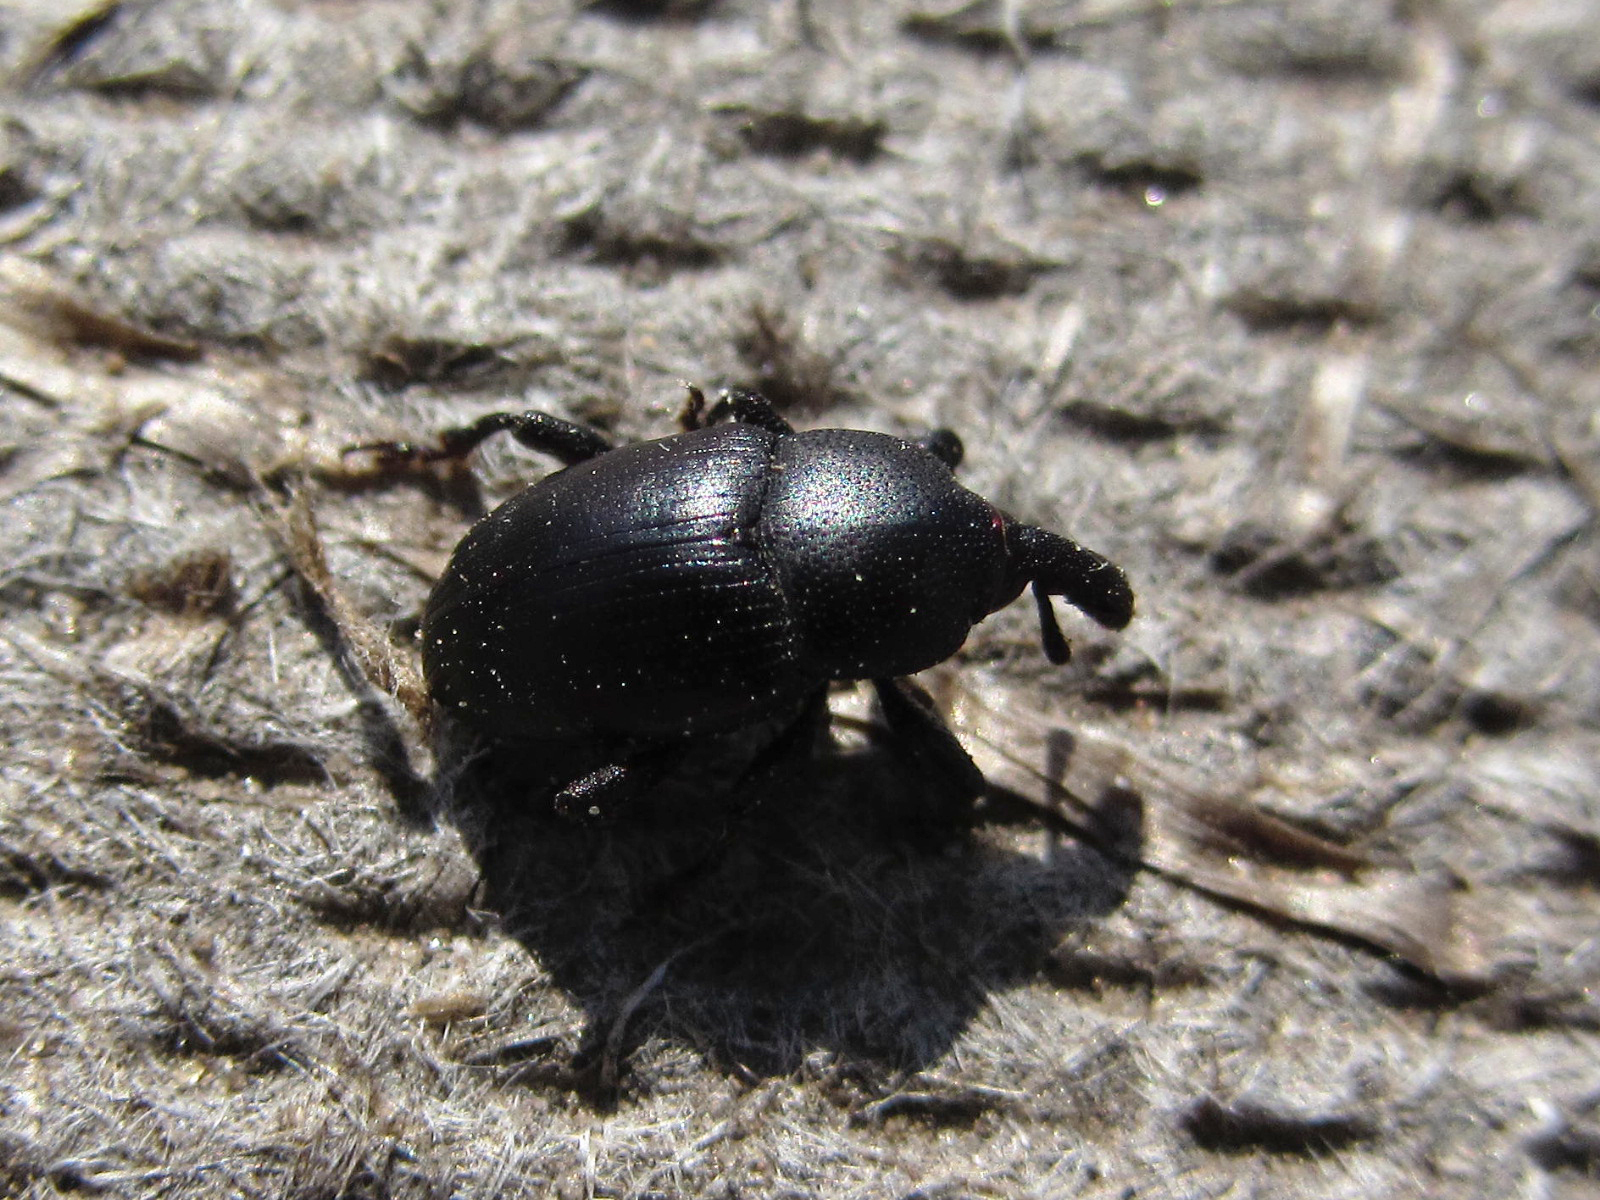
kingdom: Animalia
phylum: Arthropoda
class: Insecta
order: Coleoptera
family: Curculionidae
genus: Malvaevora
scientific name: Malvaevora timida
